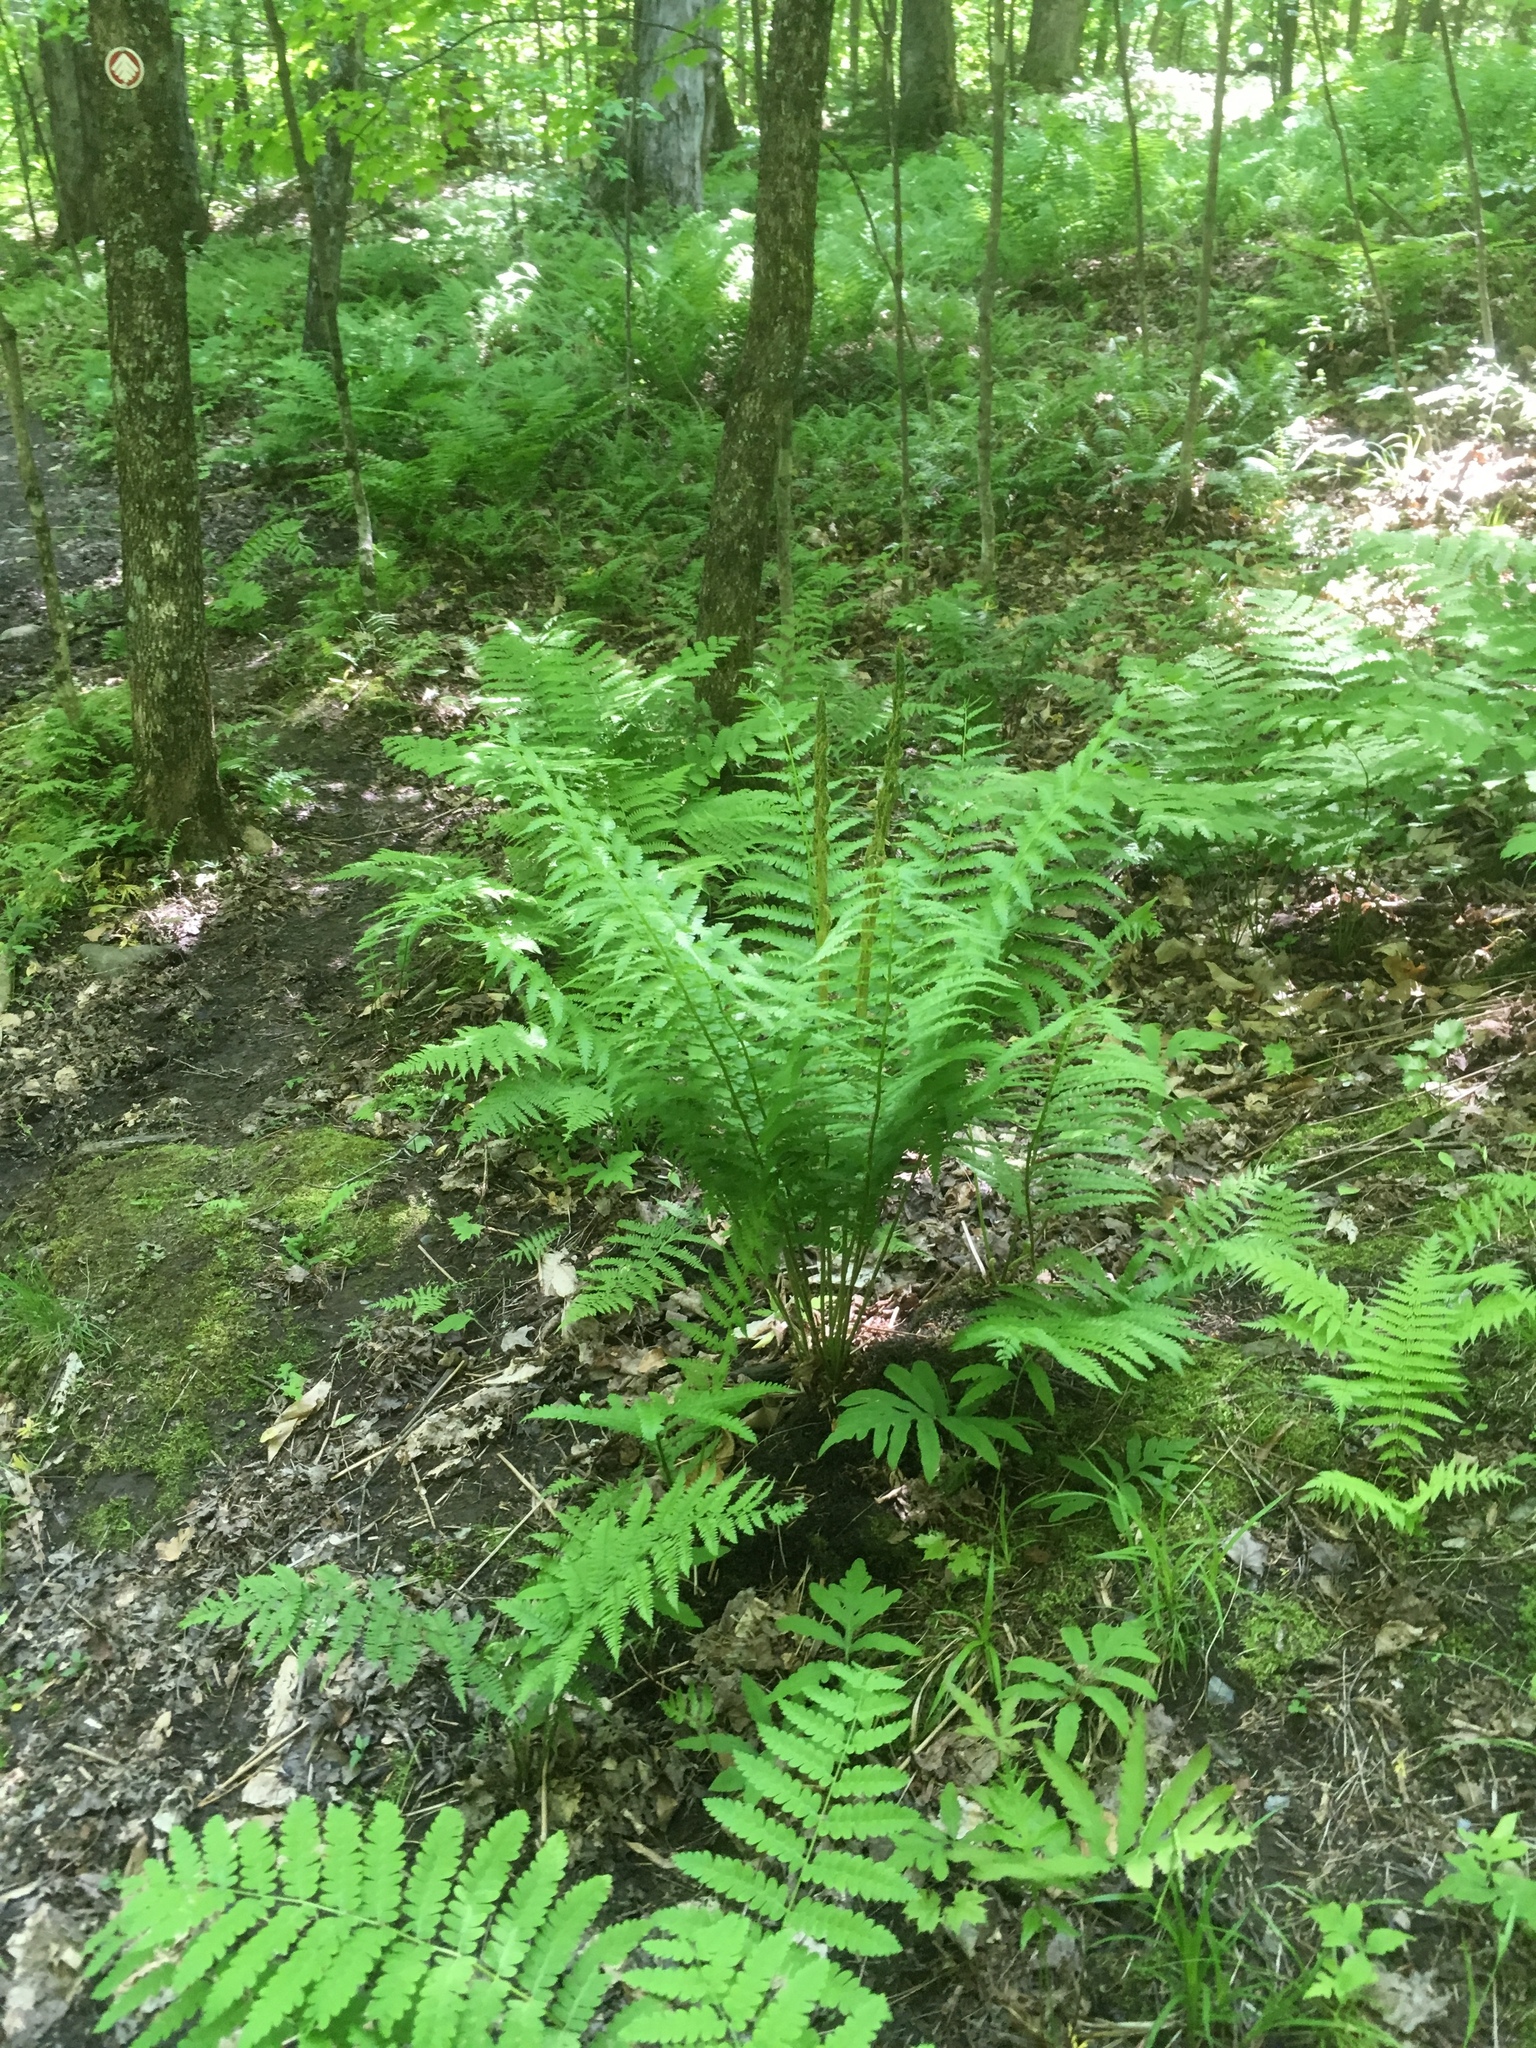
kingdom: Plantae
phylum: Tracheophyta
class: Polypodiopsida
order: Osmundales
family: Osmundaceae
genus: Osmundastrum
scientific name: Osmundastrum cinnamomeum
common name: Cinnamon fern
